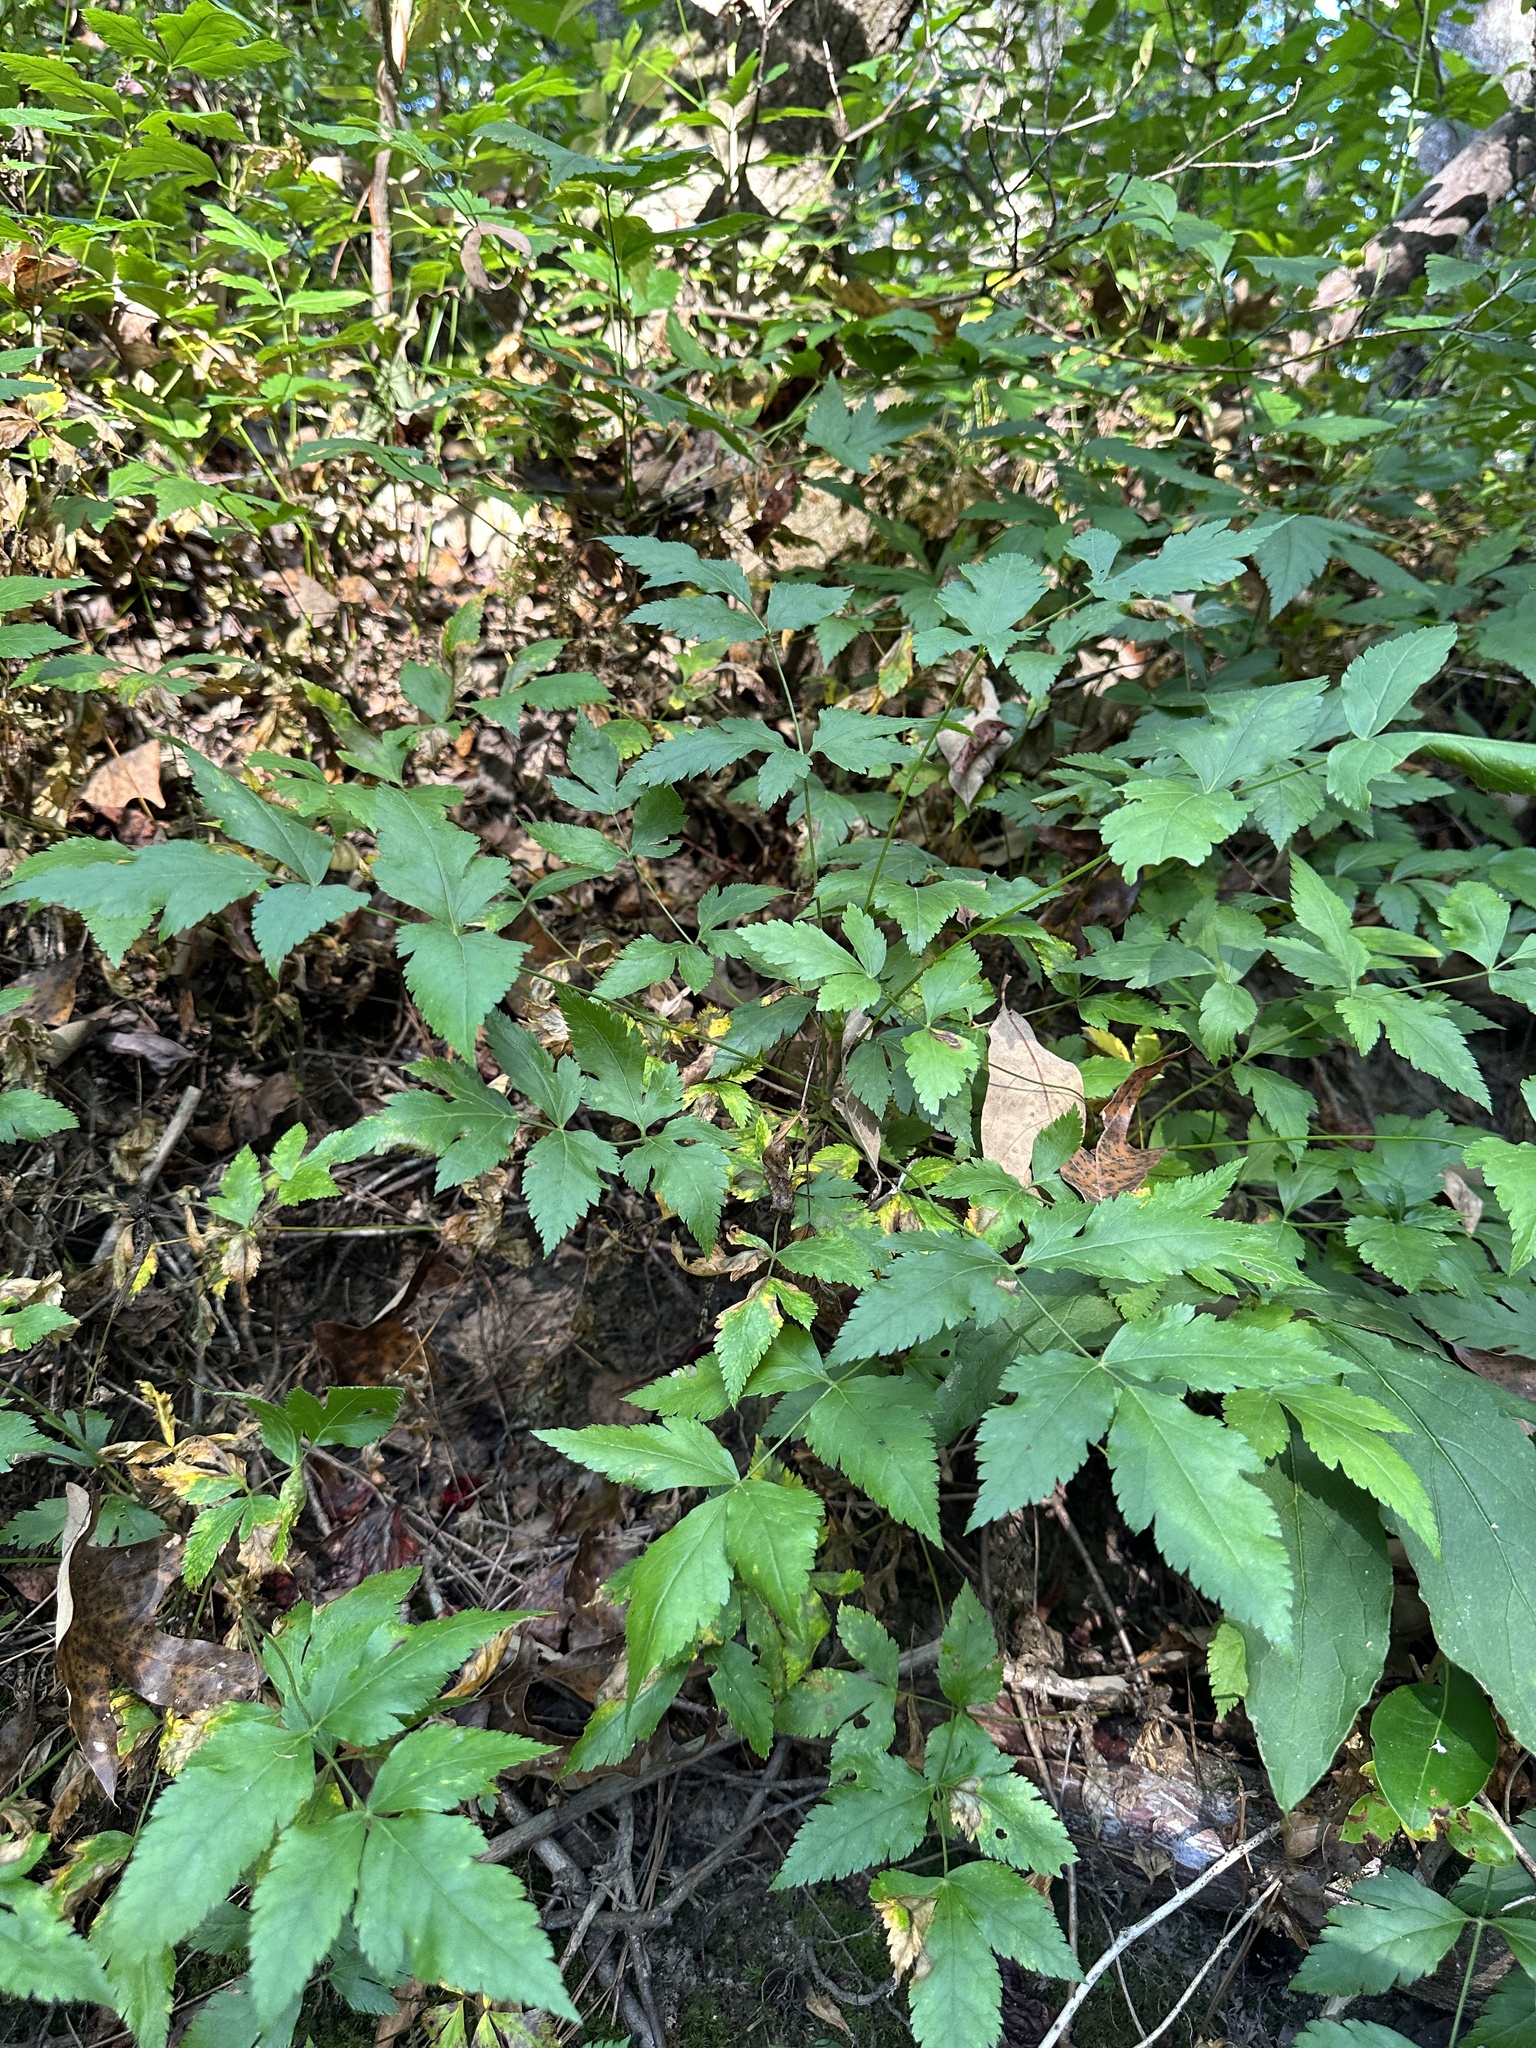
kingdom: Plantae
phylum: Tracheophyta
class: Magnoliopsida
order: Ranunculales
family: Ranunculaceae
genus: Xanthorhiza
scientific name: Xanthorhiza simplicissima
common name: Yellowroot
